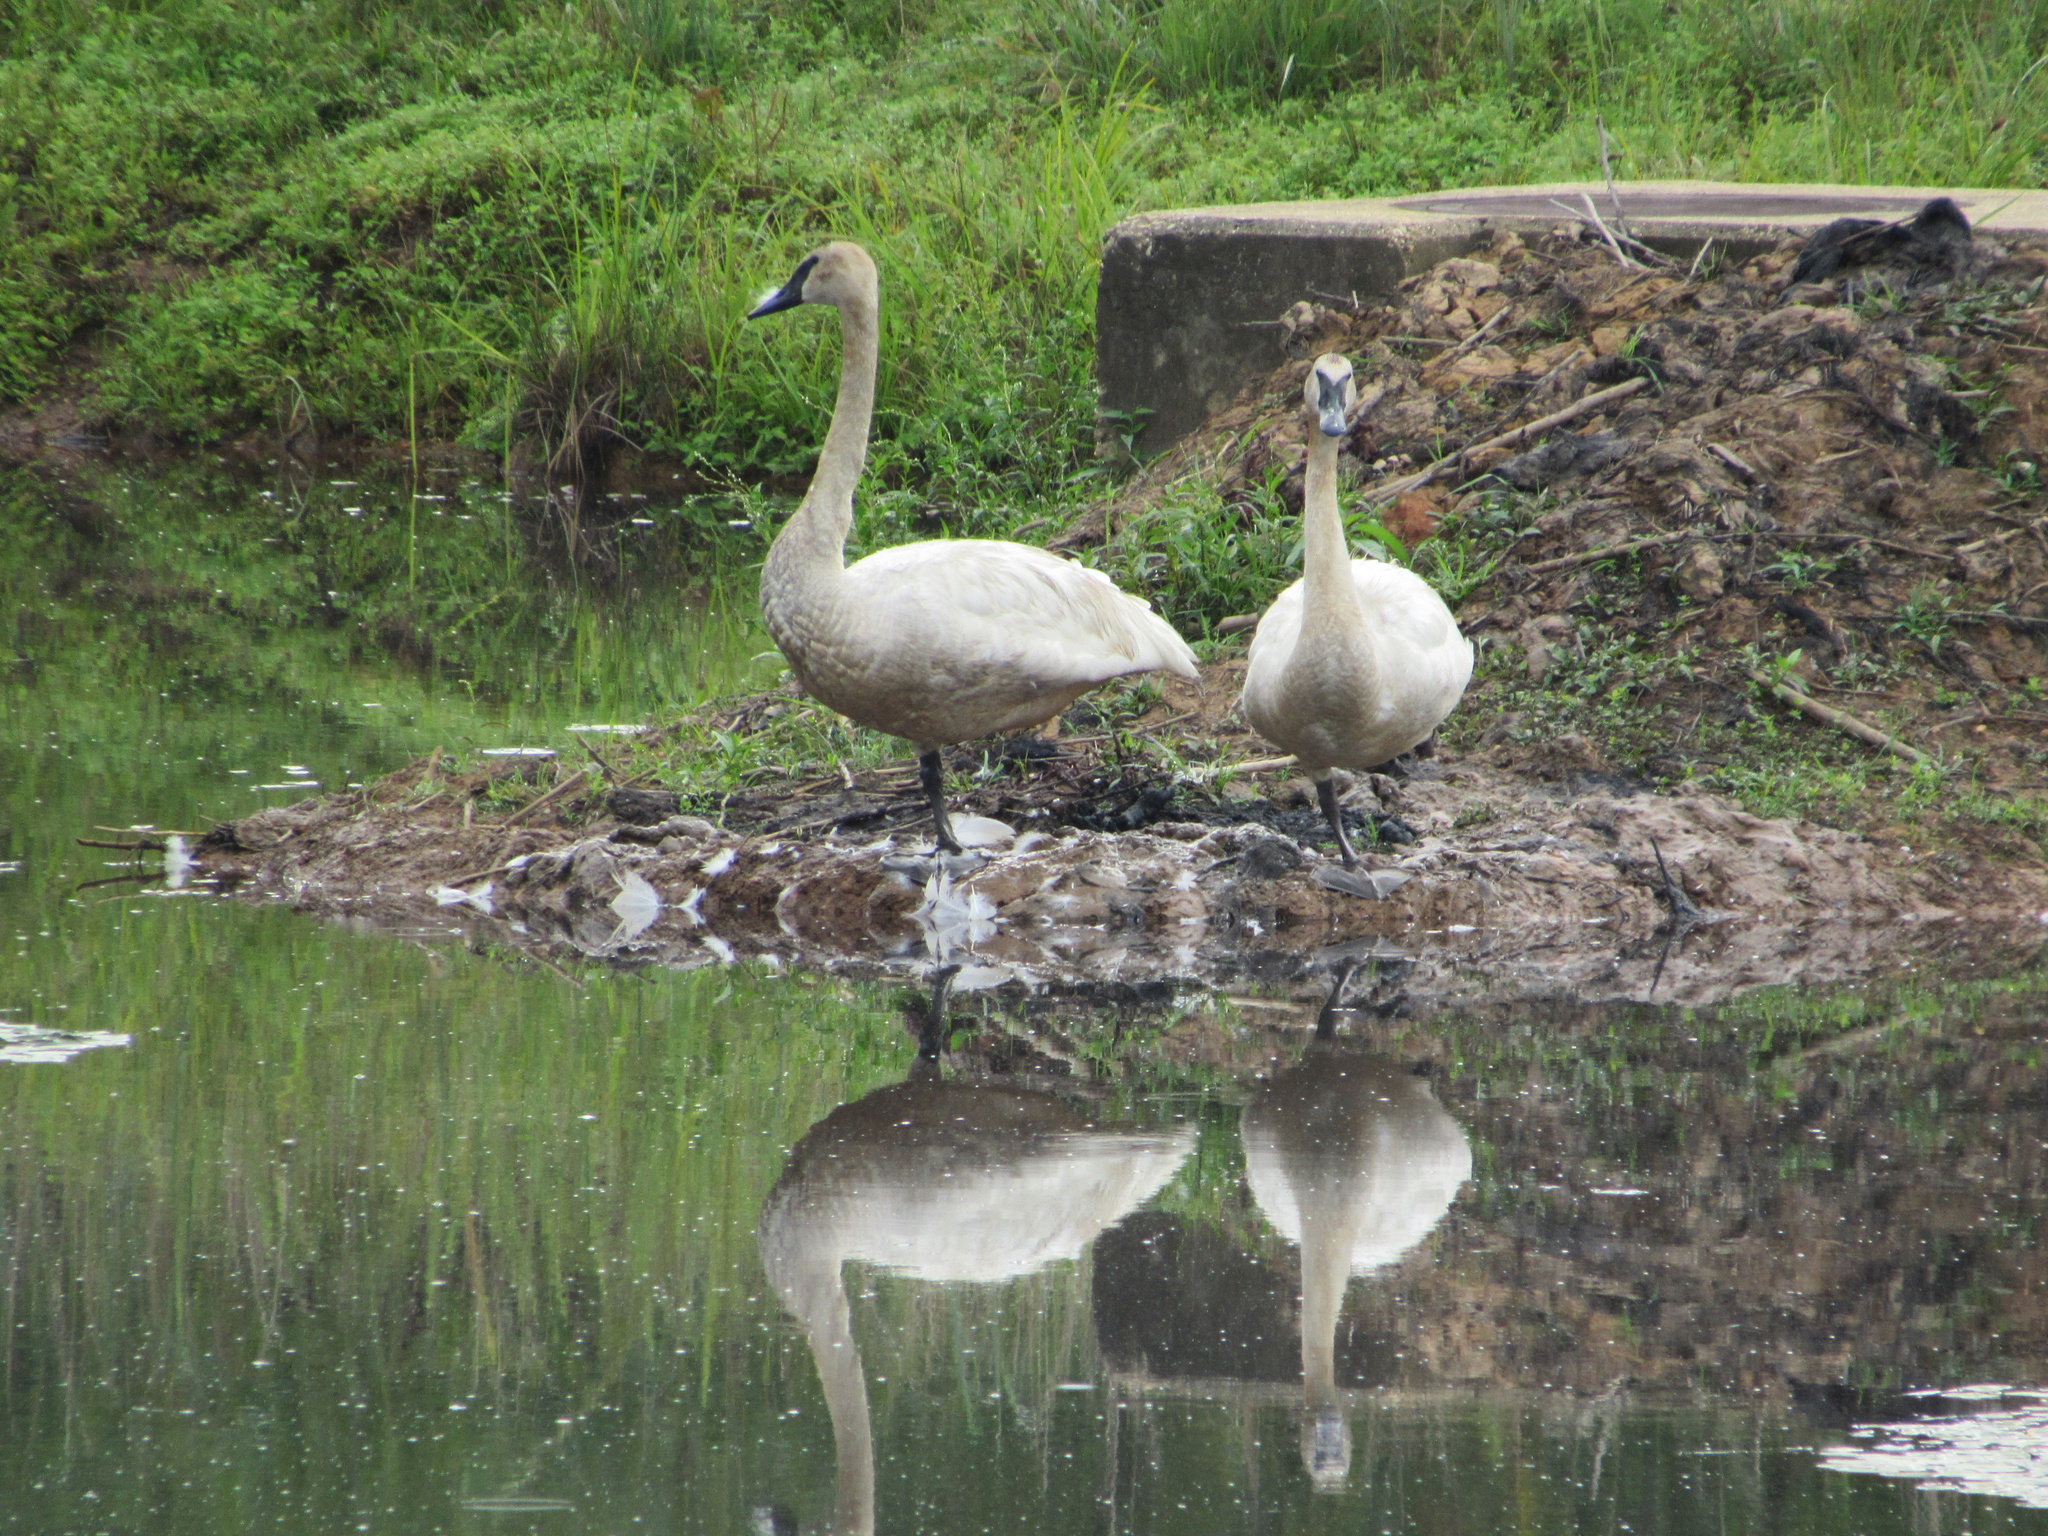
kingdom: Animalia
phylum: Chordata
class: Aves
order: Anseriformes
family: Anatidae
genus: Cygnus
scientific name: Cygnus buccinator
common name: Trumpeter swan
